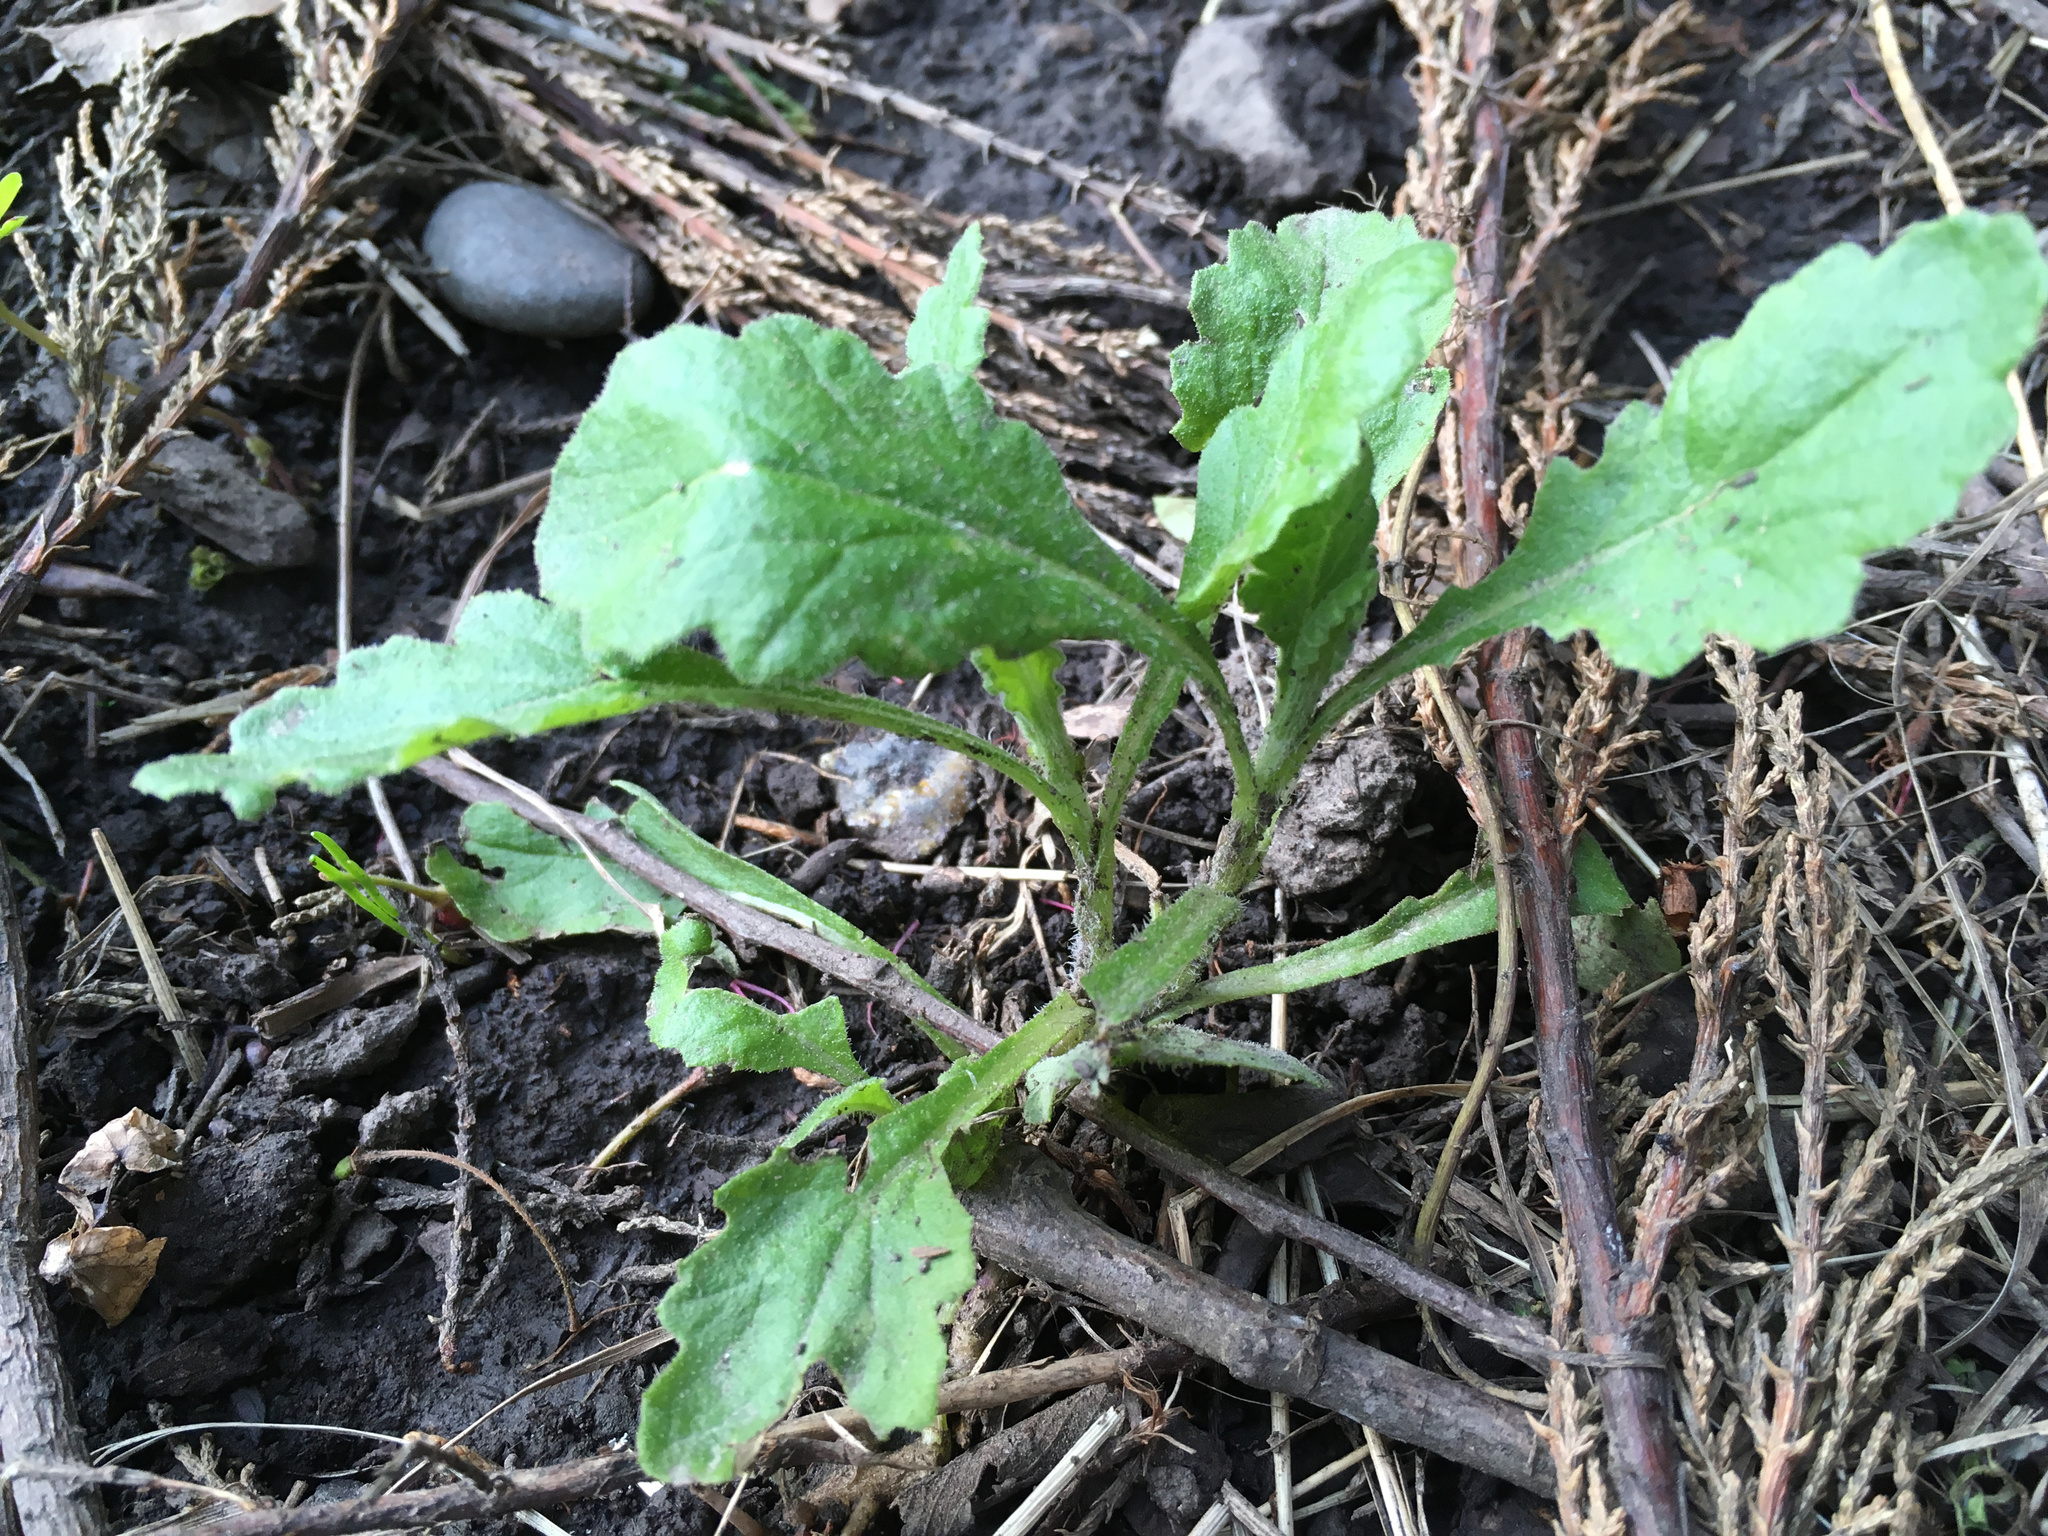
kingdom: Plantae
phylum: Tracheophyta
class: Magnoliopsida
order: Asterales
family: Asteraceae
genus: Senecio
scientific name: Senecio glomeratus
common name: Cutleaf burnweed
